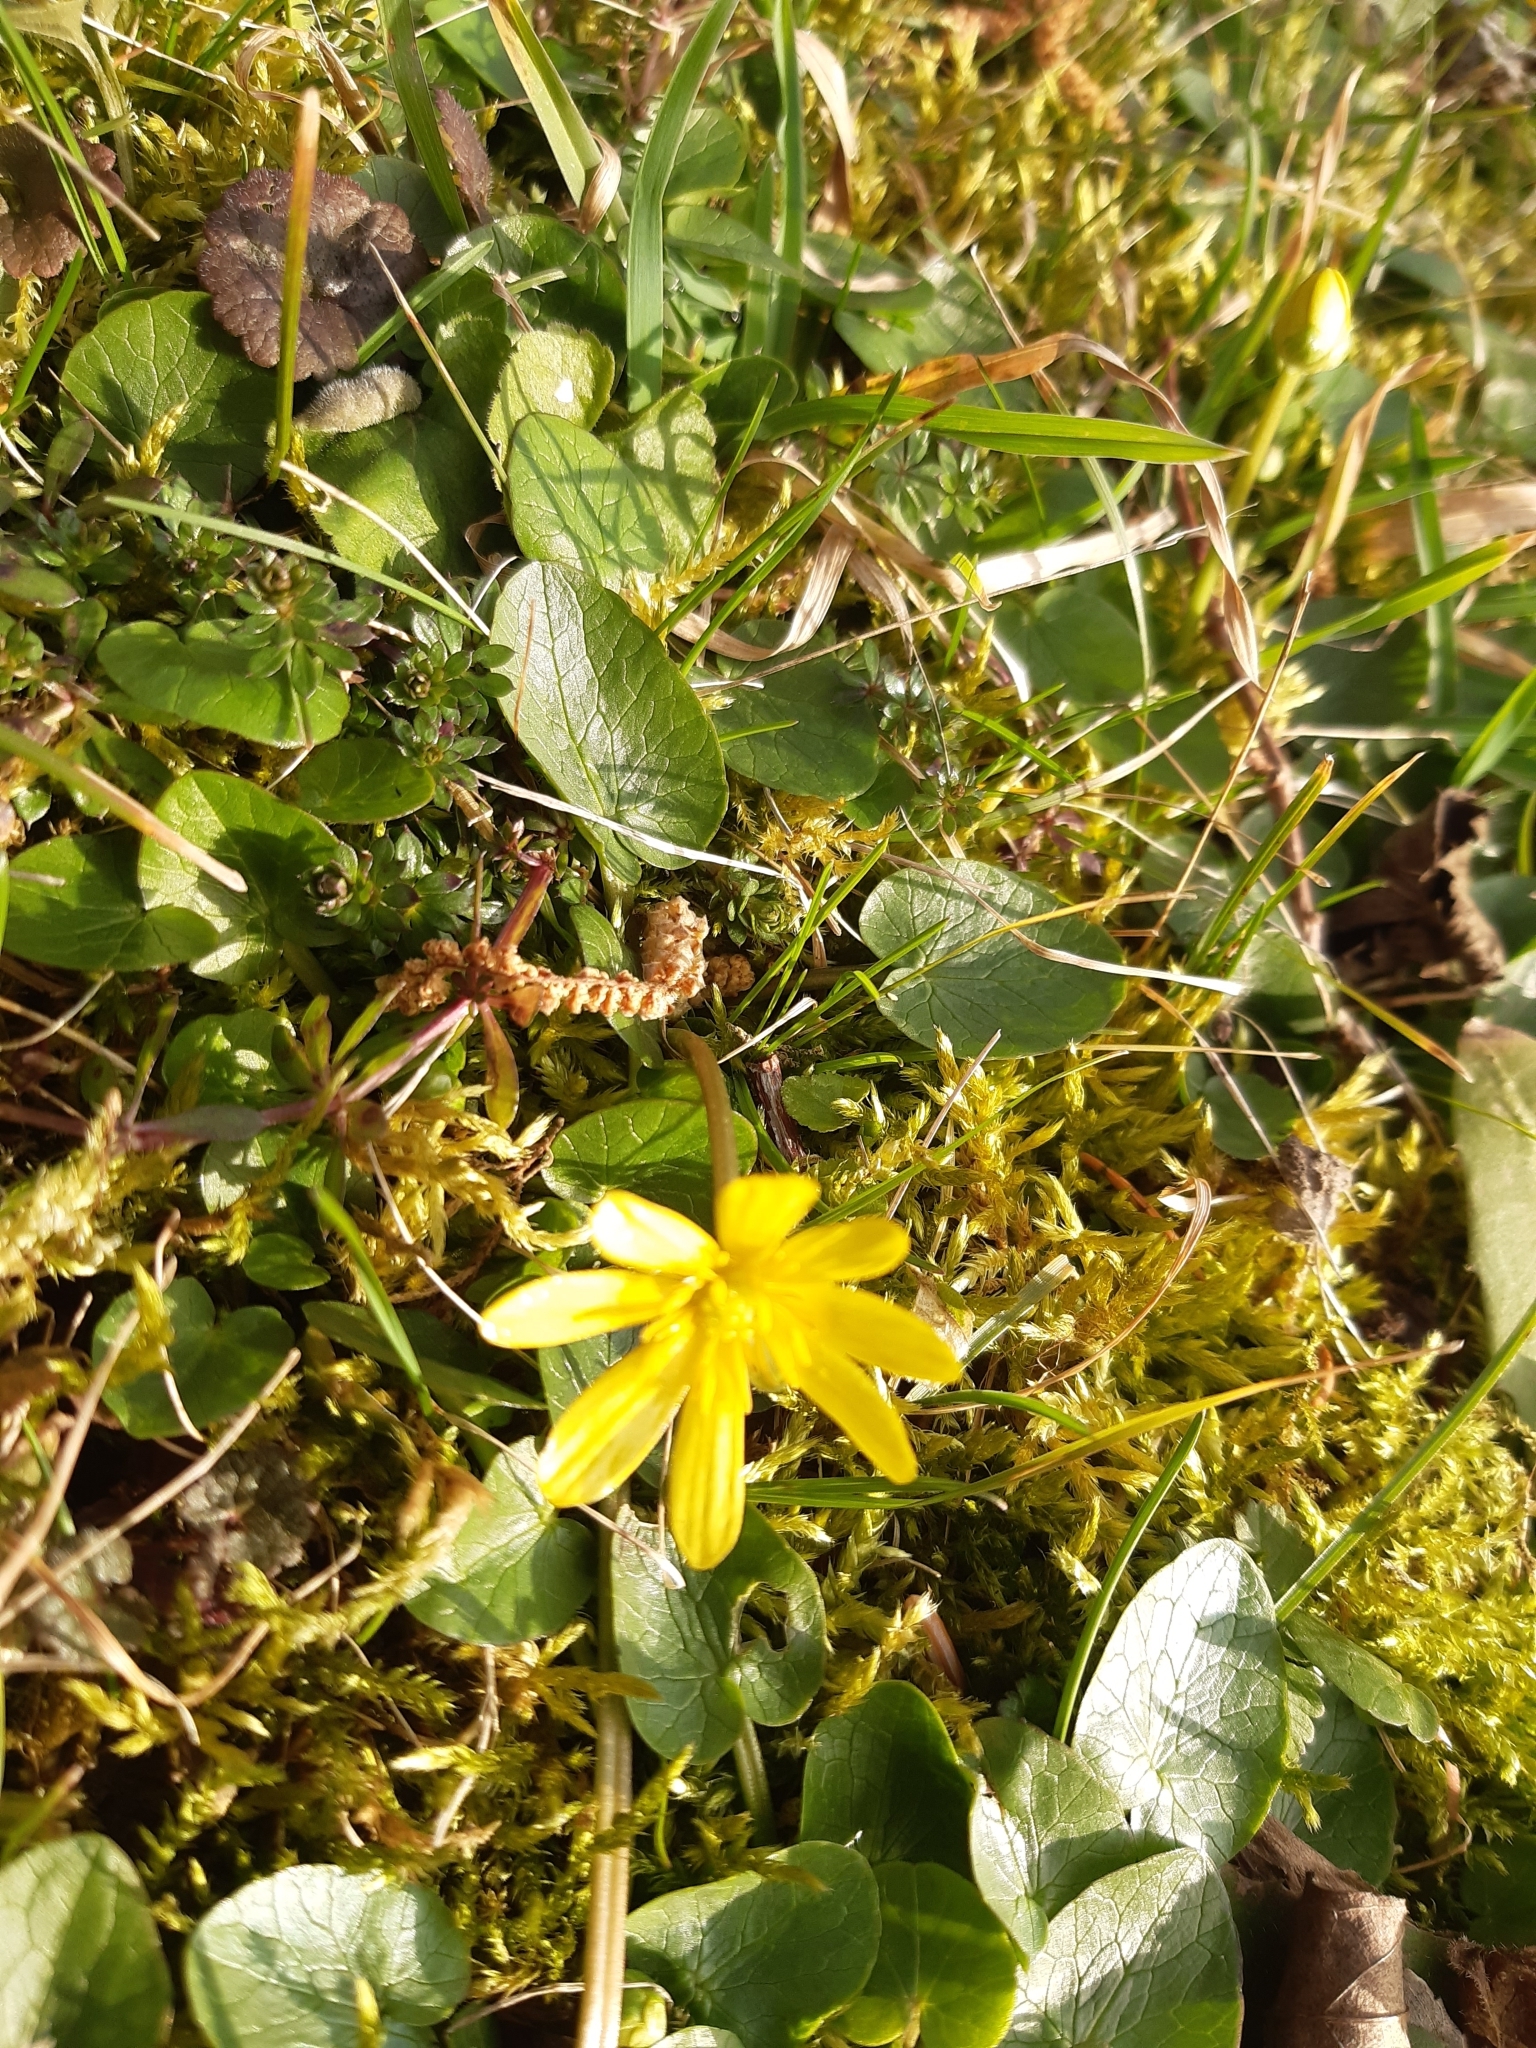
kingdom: Plantae
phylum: Tracheophyta
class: Magnoliopsida
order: Ranunculales
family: Ranunculaceae
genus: Ficaria
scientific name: Ficaria verna
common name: Lesser celandine
